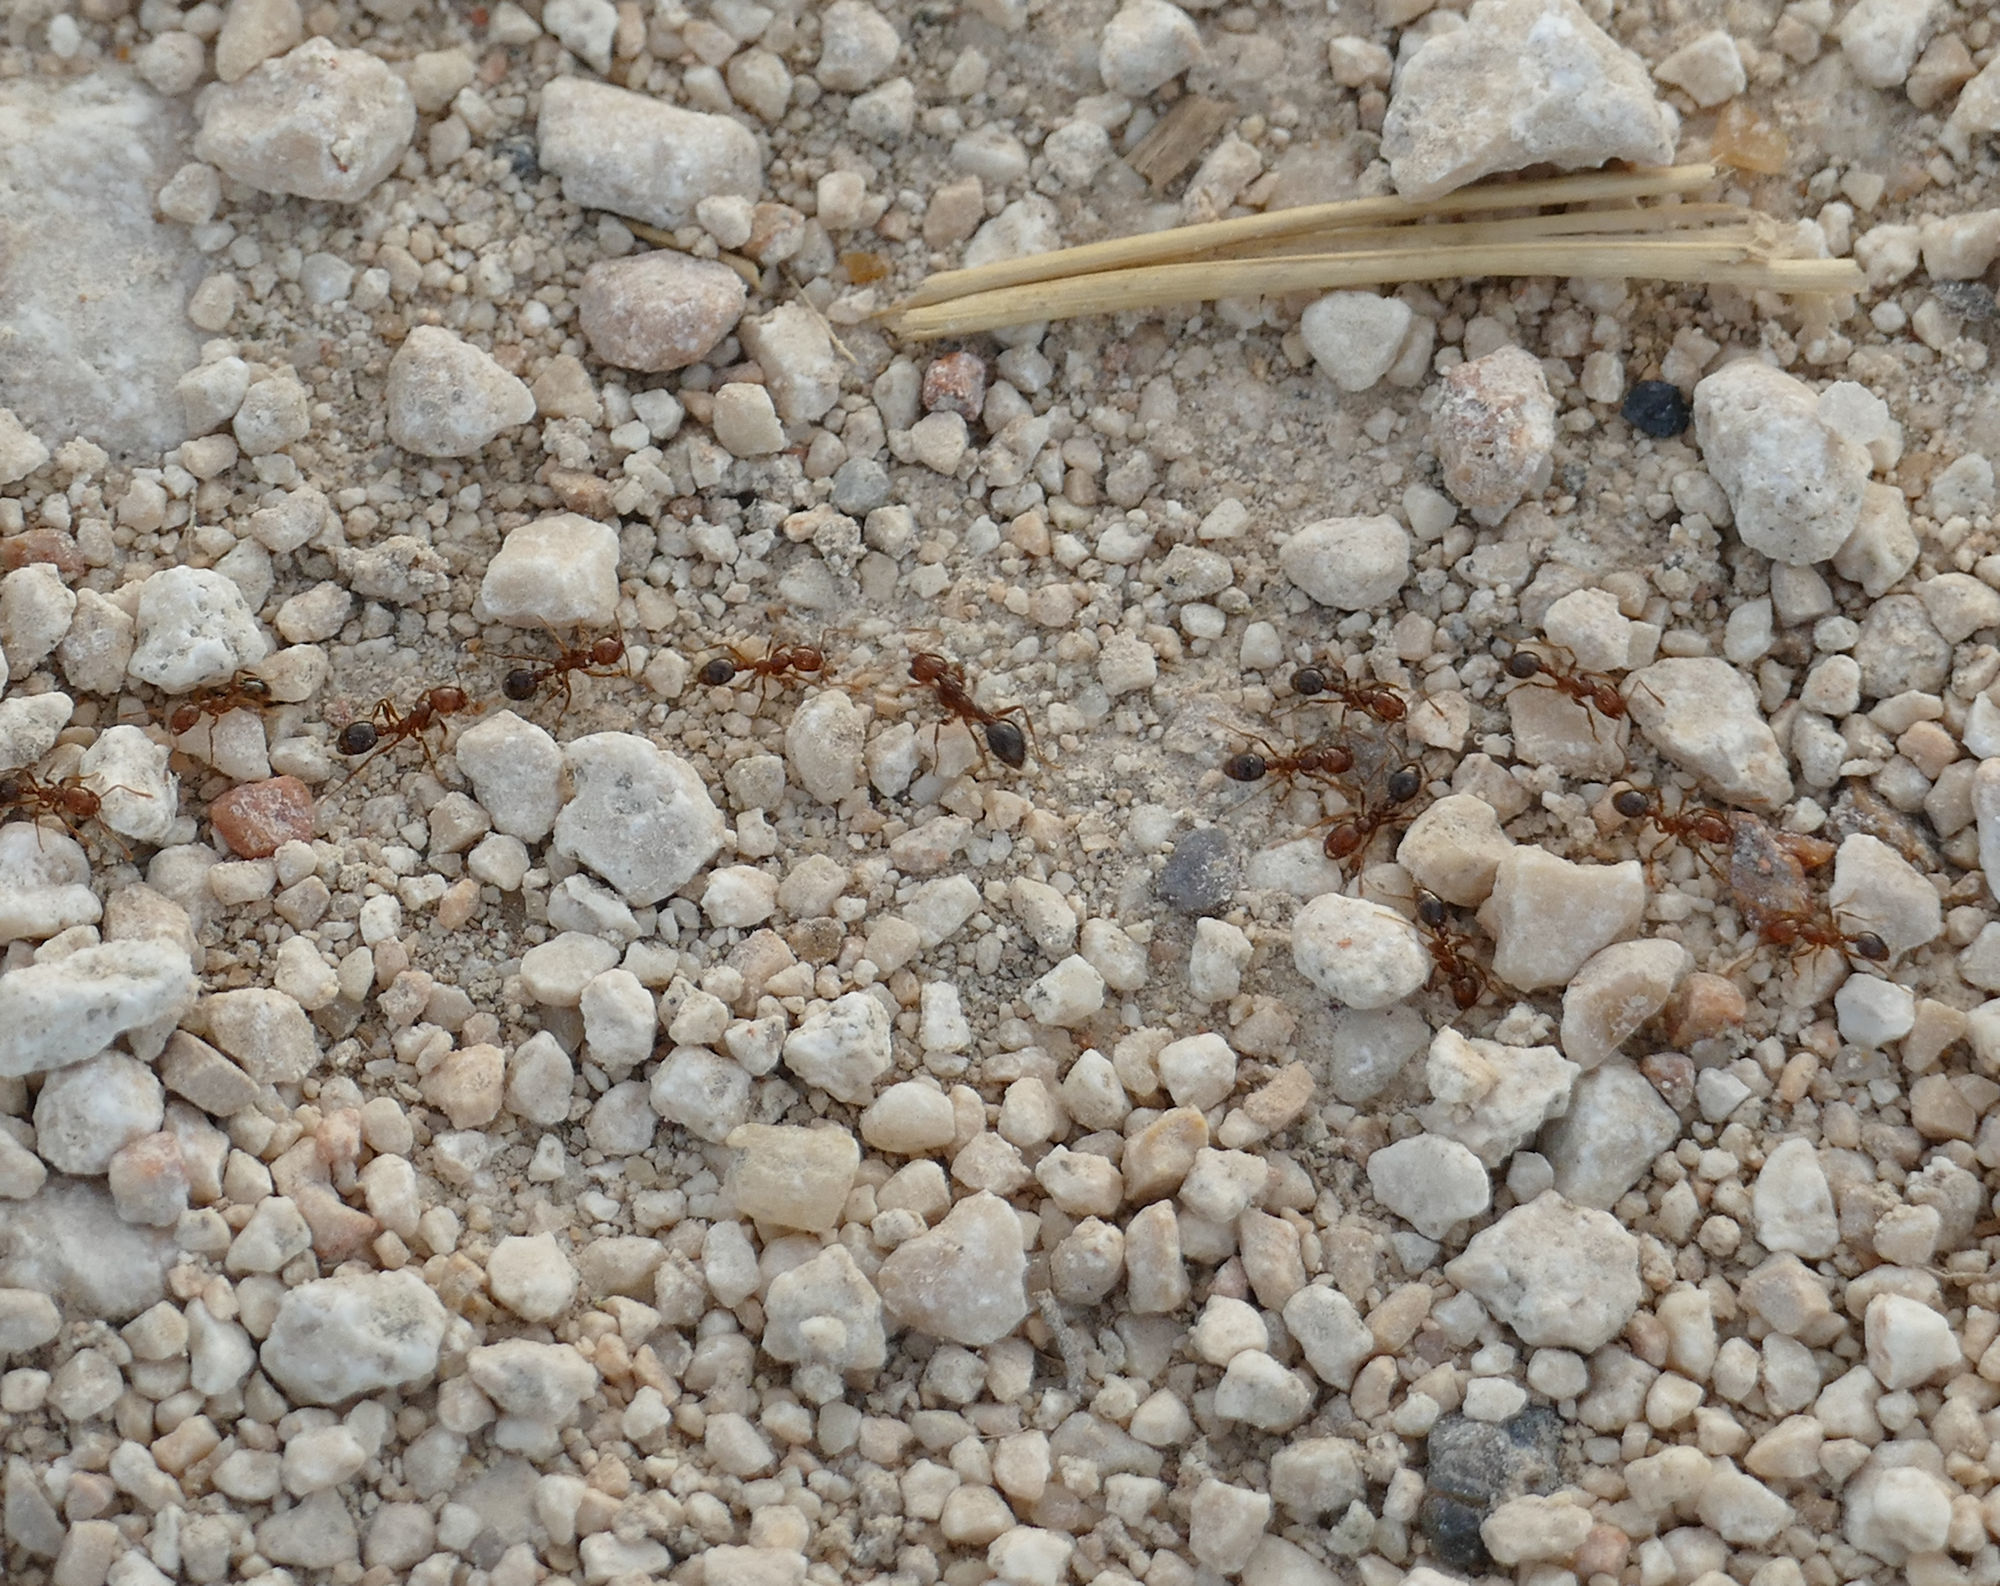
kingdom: Animalia
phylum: Arthropoda
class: Insecta
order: Hymenoptera
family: Formicidae
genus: Solenopsis
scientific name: Solenopsis invicta
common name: Red imported fire ant
